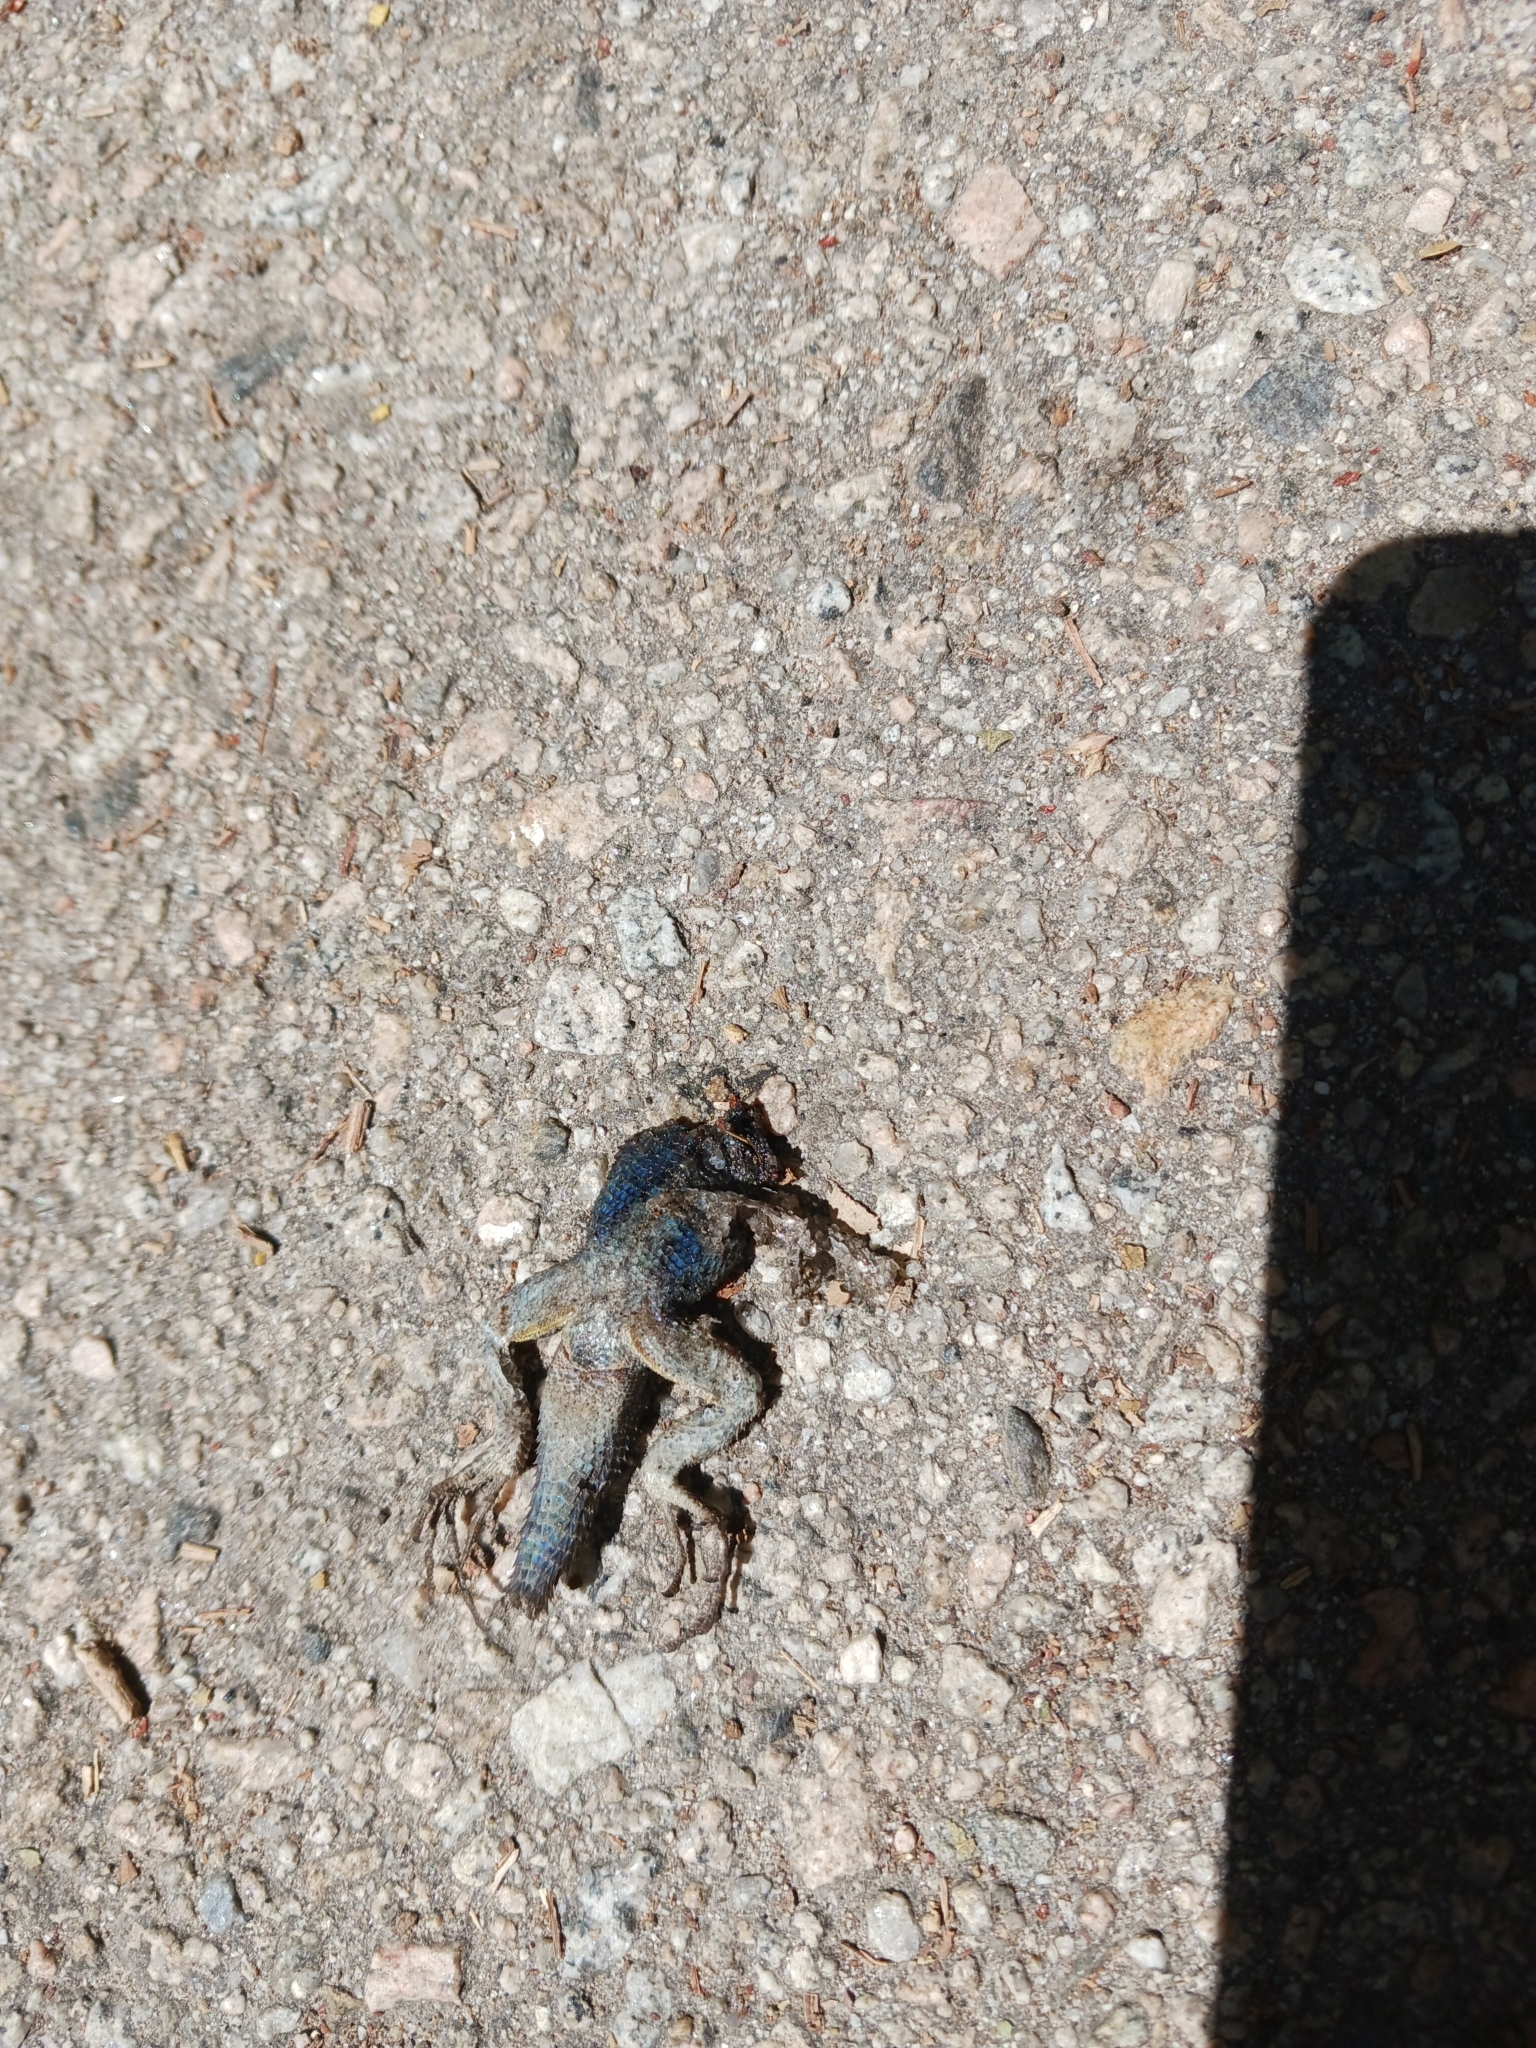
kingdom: Animalia
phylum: Chordata
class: Squamata
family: Phrynosomatidae
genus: Sceloporus
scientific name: Sceloporus occidentalis
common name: Western fence lizard
